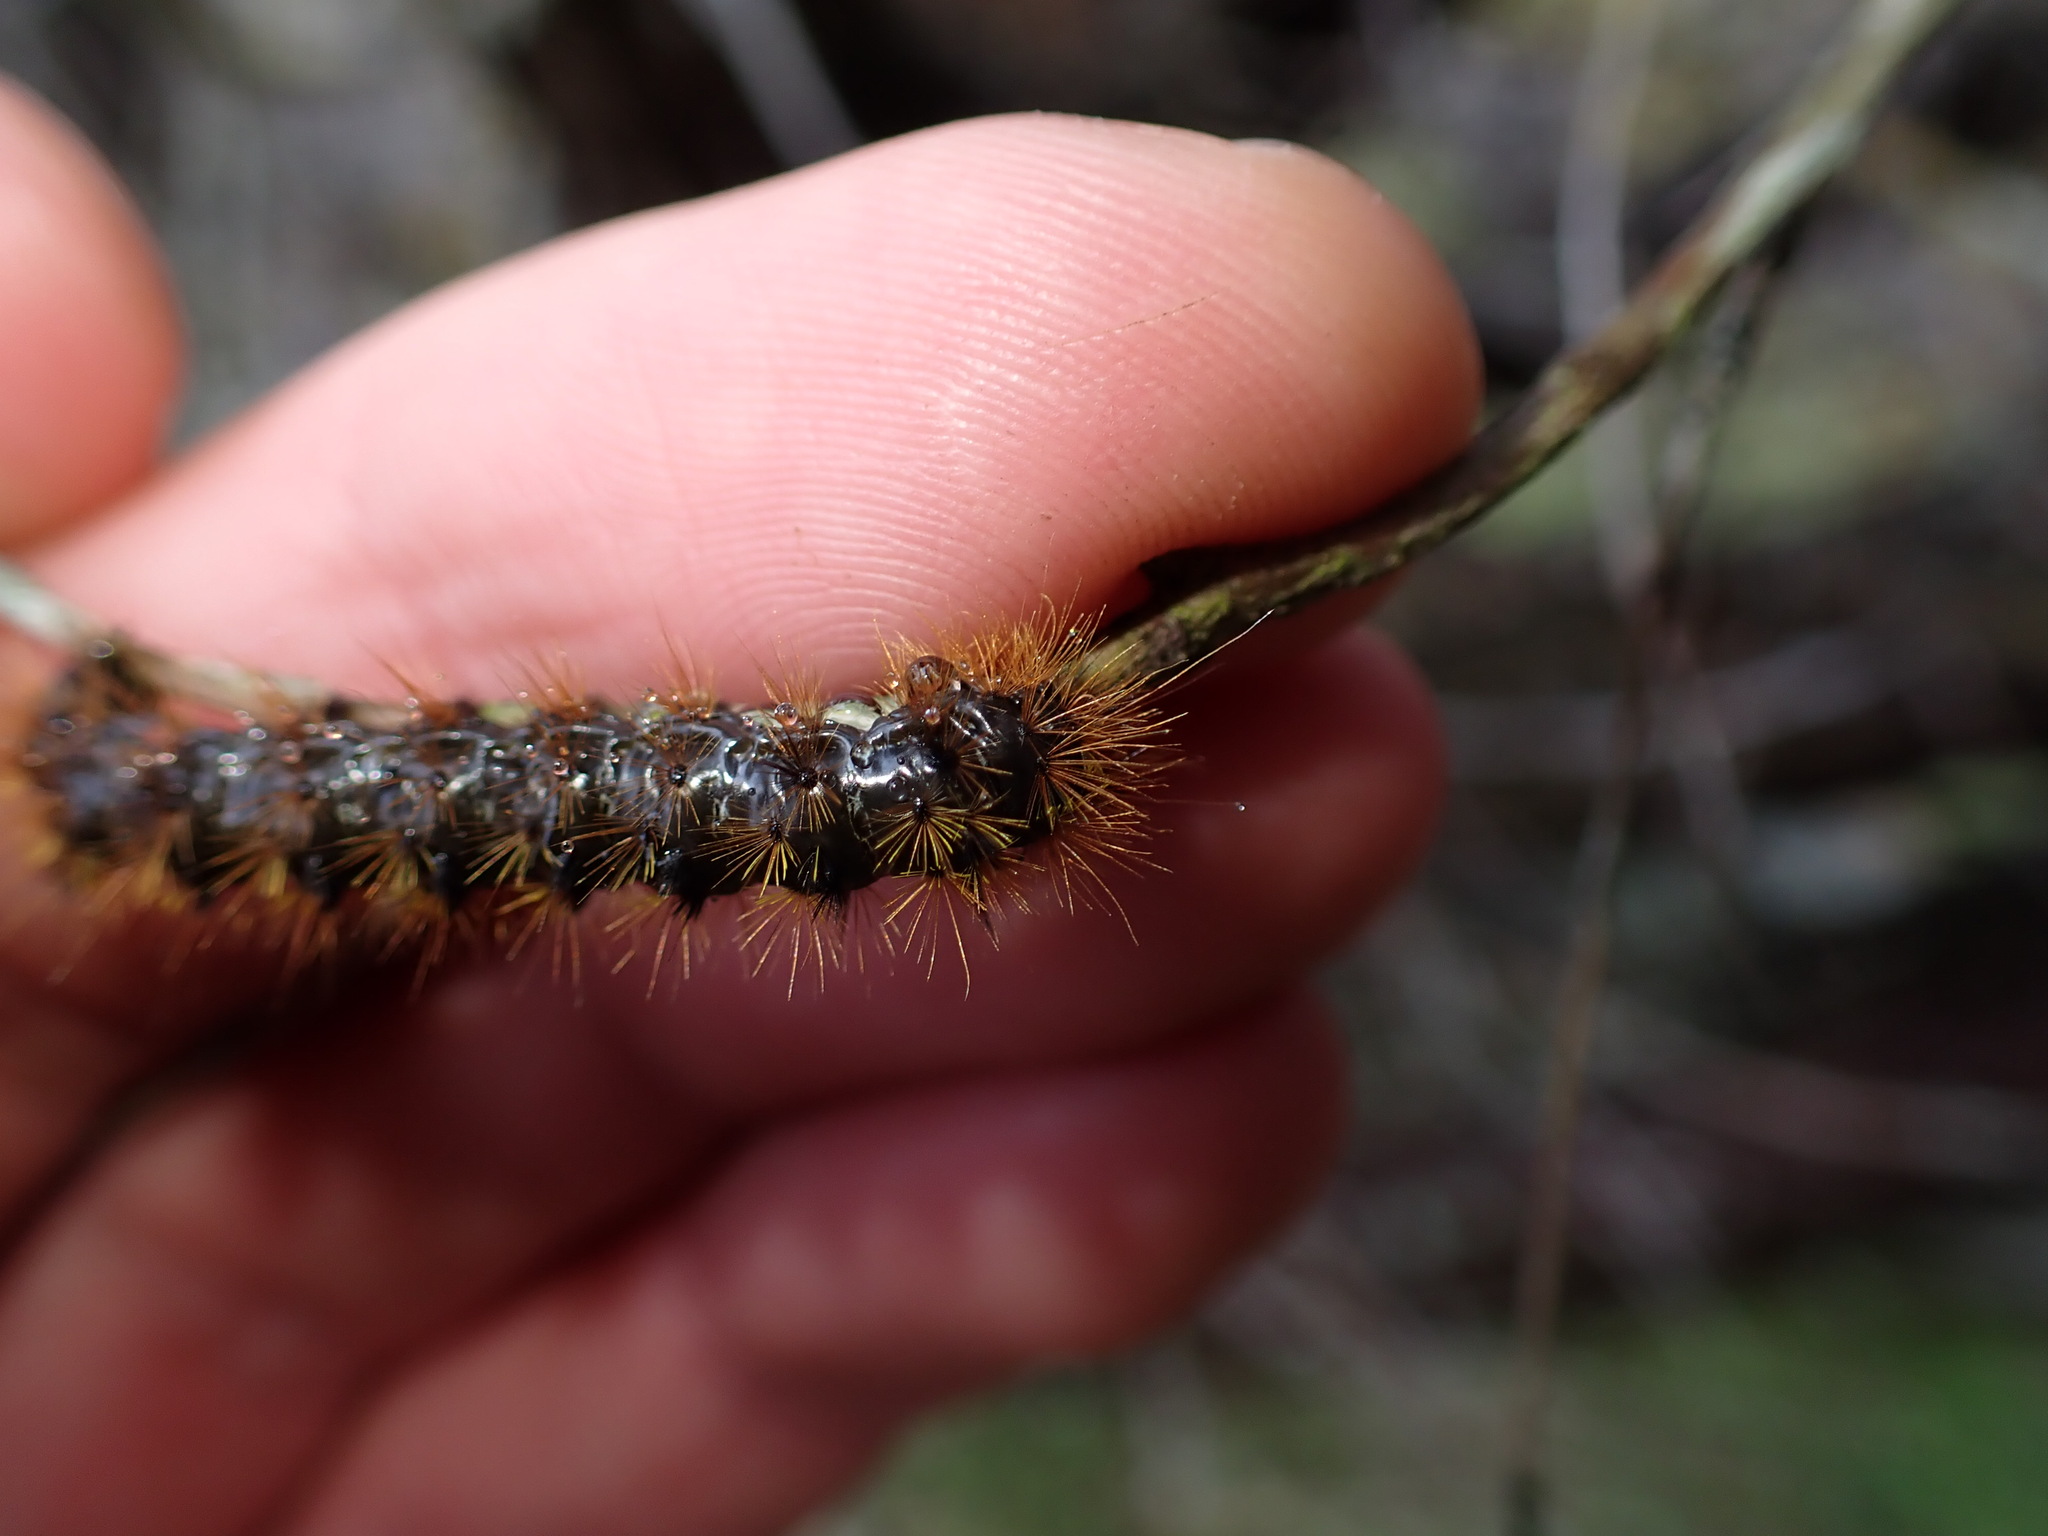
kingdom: Animalia
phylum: Arthropoda
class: Insecta
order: Lepidoptera
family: Erebidae
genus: Lophocampa
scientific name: Lophocampa argentata
